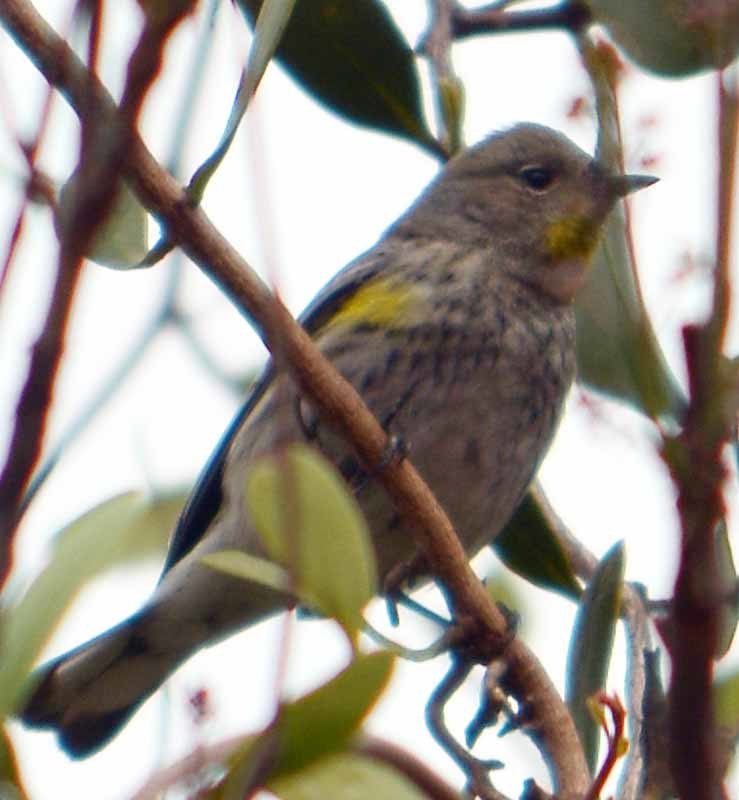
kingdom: Animalia
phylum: Chordata
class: Aves
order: Passeriformes
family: Parulidae
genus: Setophaga
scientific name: Setophaga coronata
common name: Myrtle warbler
